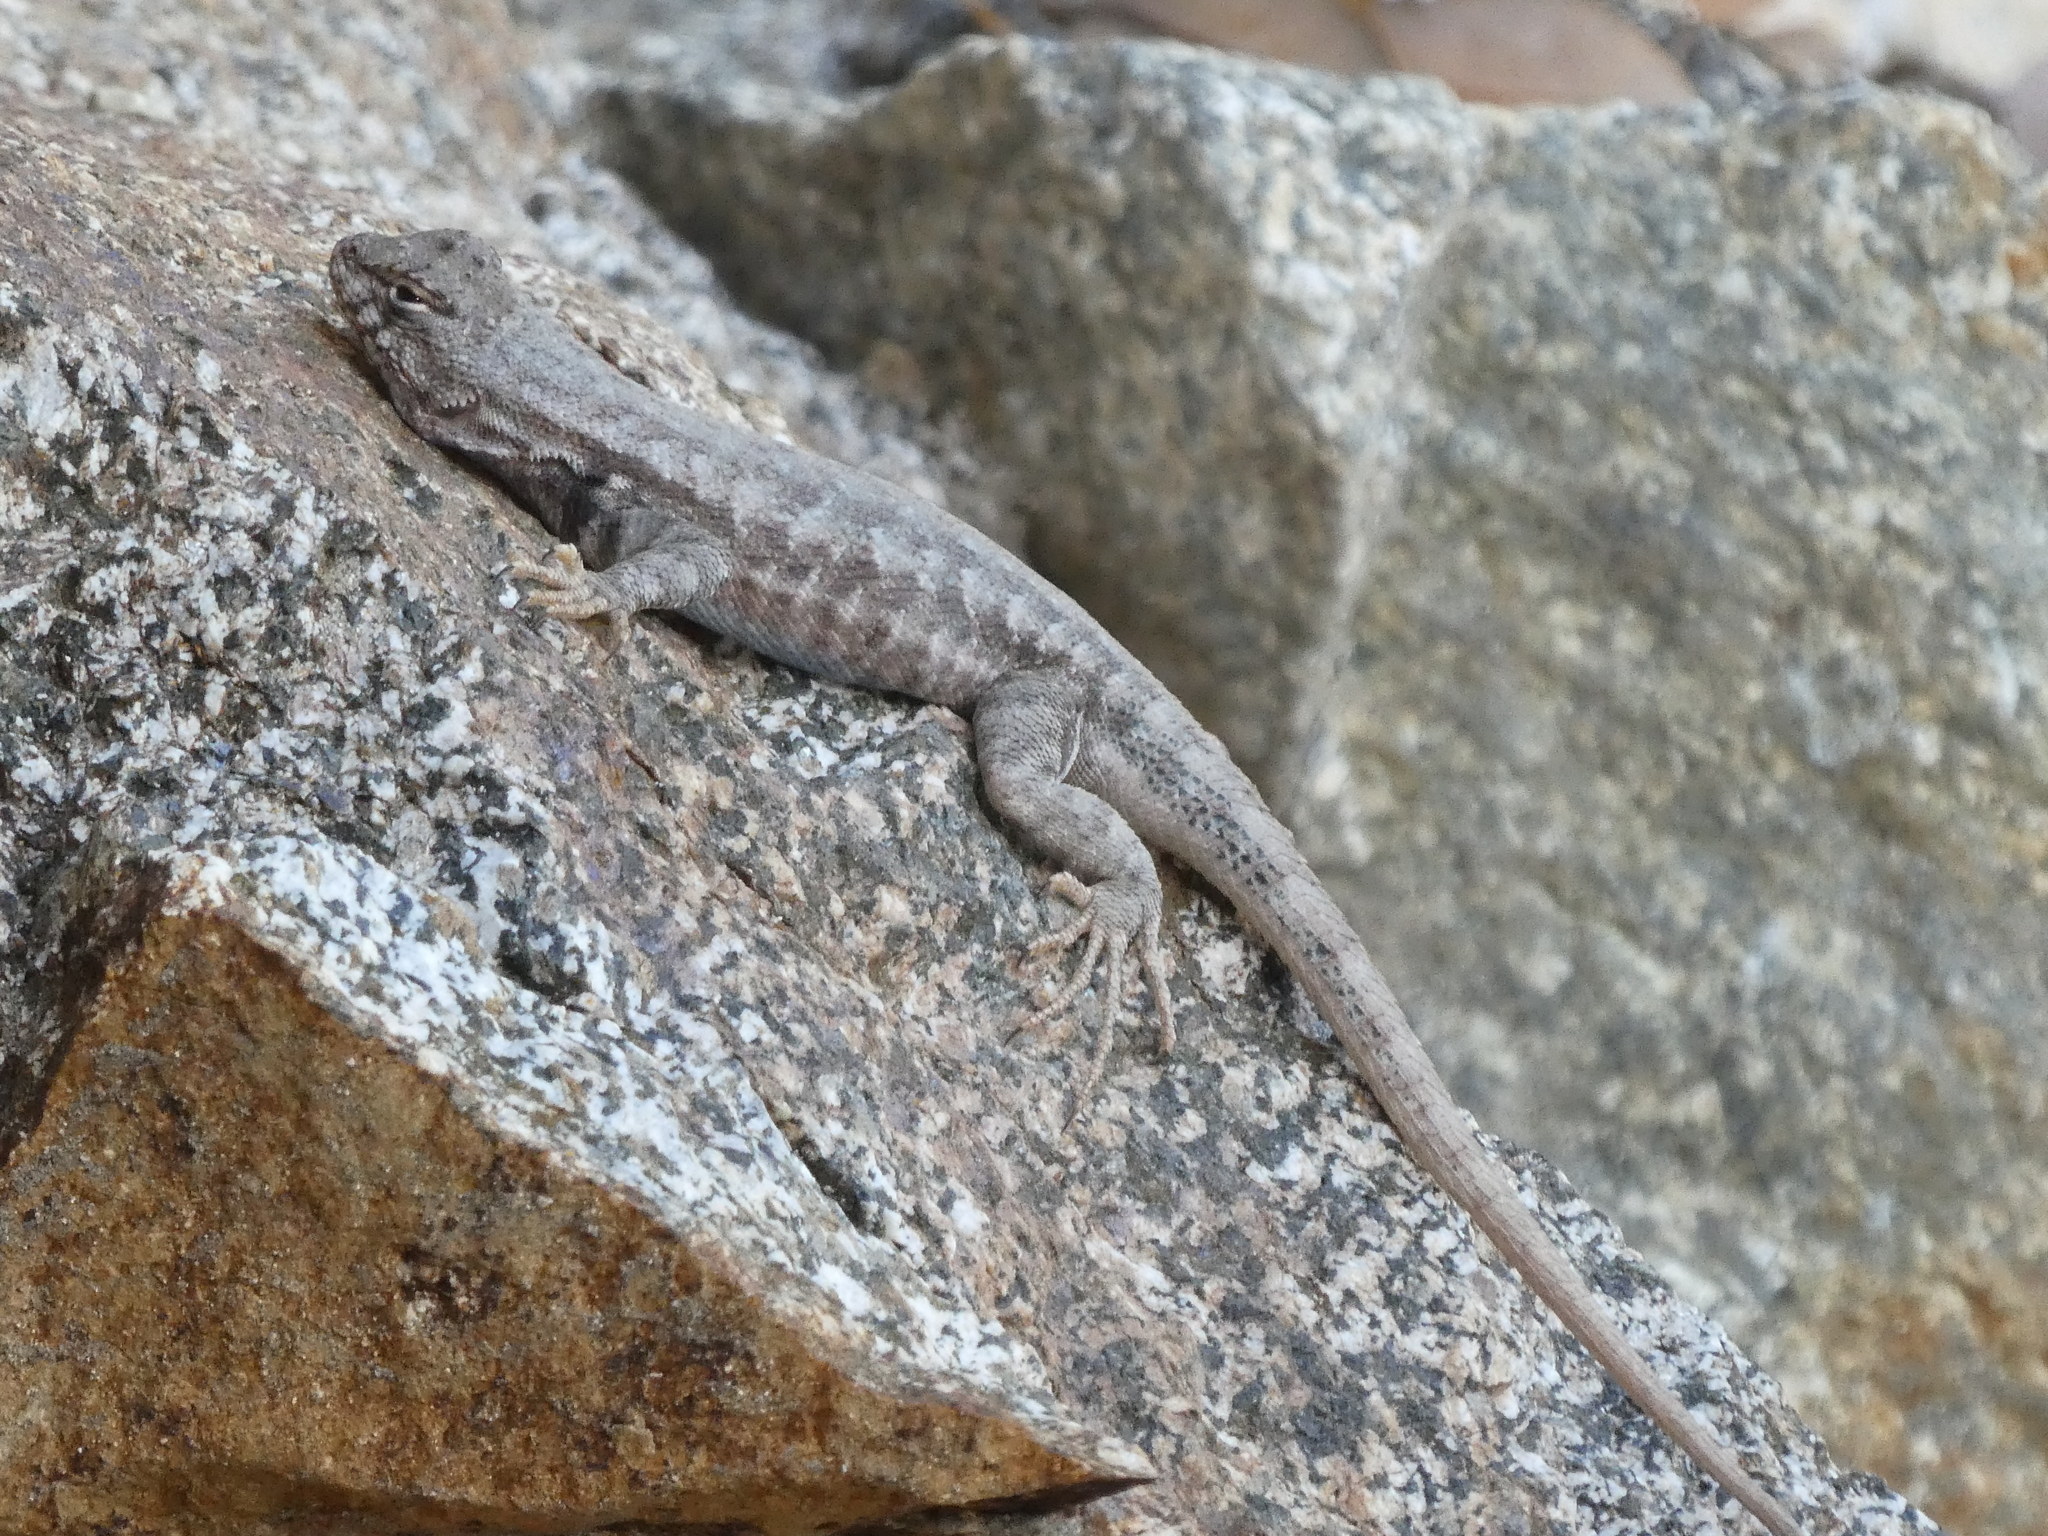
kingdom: Animalia
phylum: Chordata
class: Squamata
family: Phrynosomatidae
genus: Sceloporus
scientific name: Sceloporus graciosus
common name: Sagebrush lizard
